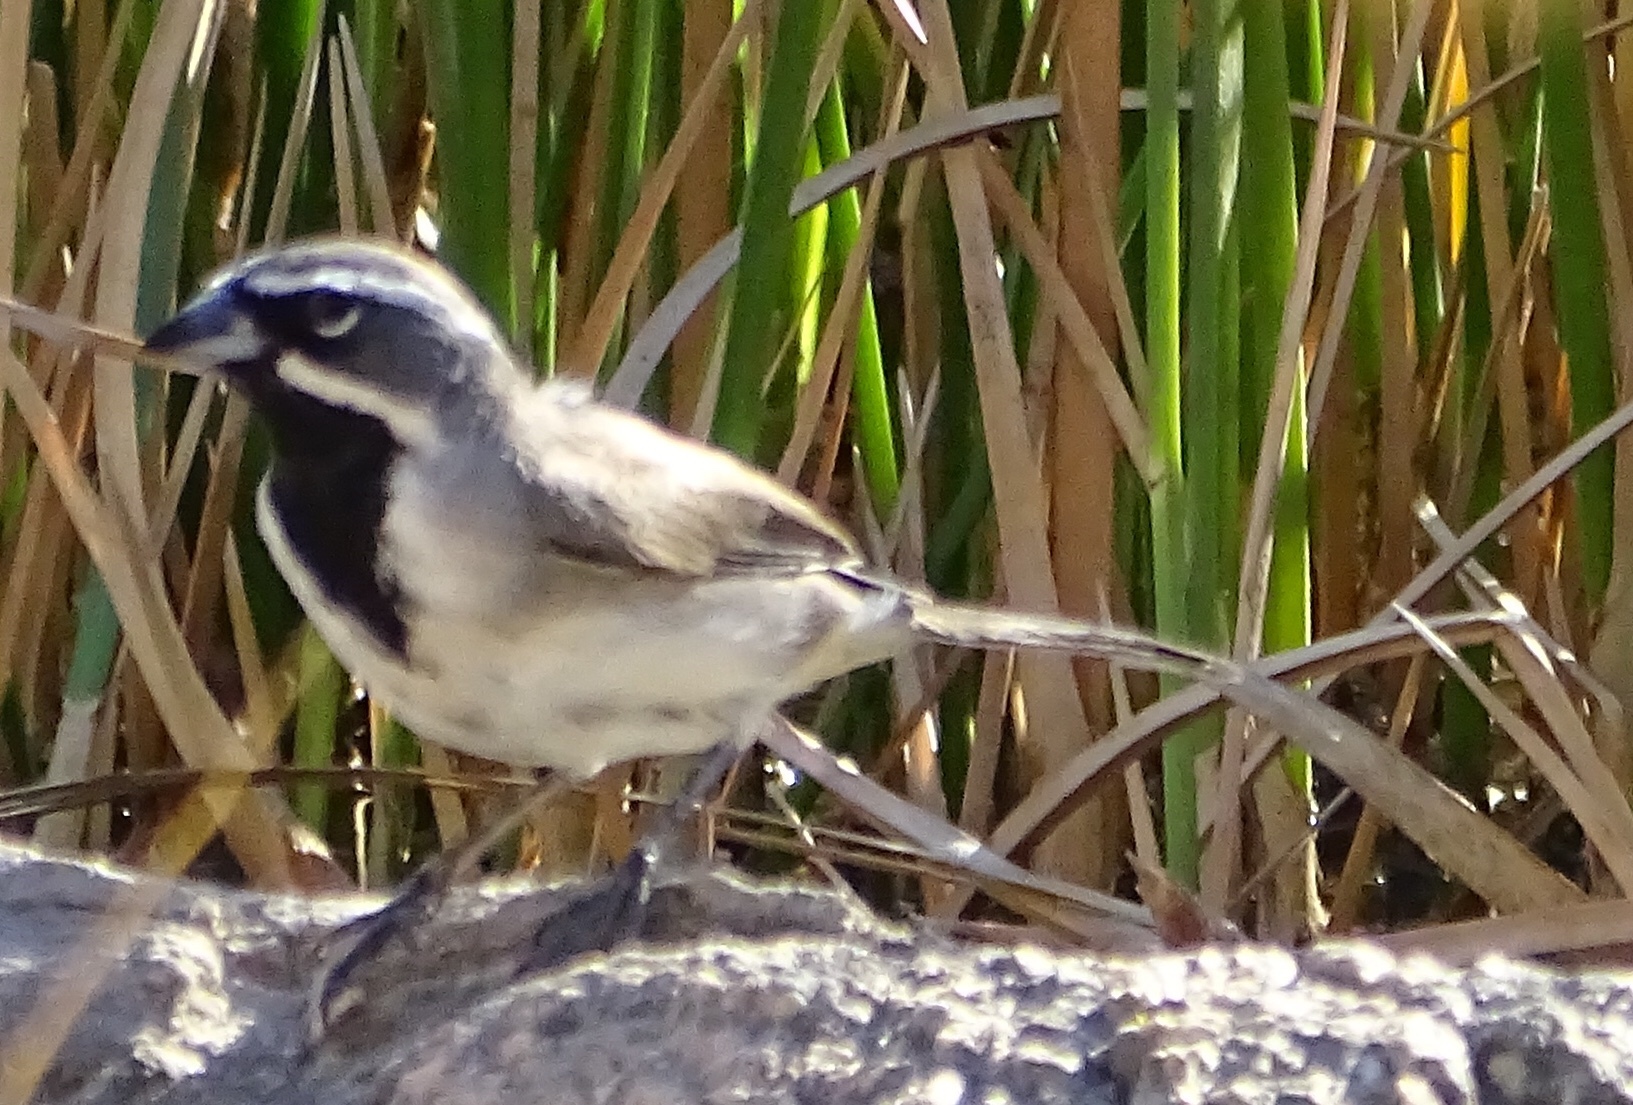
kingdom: Animalia
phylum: Chordata
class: Aves
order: Passeriformes
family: Passerellidae
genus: Amphispiza
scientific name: Amphispiza bilineata
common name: Black-throated sparrow
